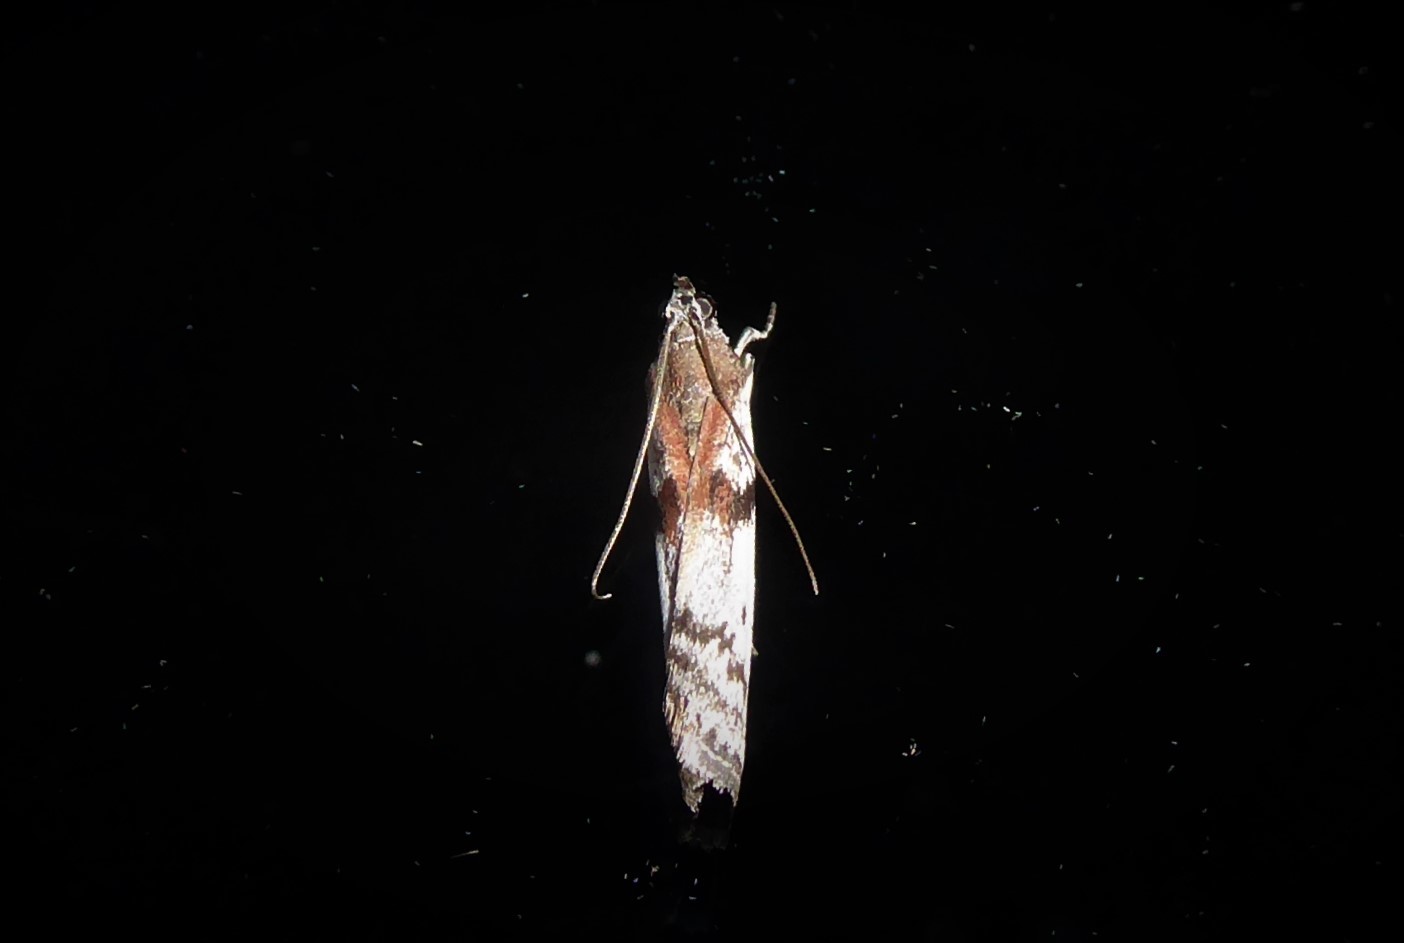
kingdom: Animalia
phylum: Arthropoda
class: Insecta
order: Lepidoptera
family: Pyralidae
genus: Patagoniodes
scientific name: Patagoniodes farinaria
